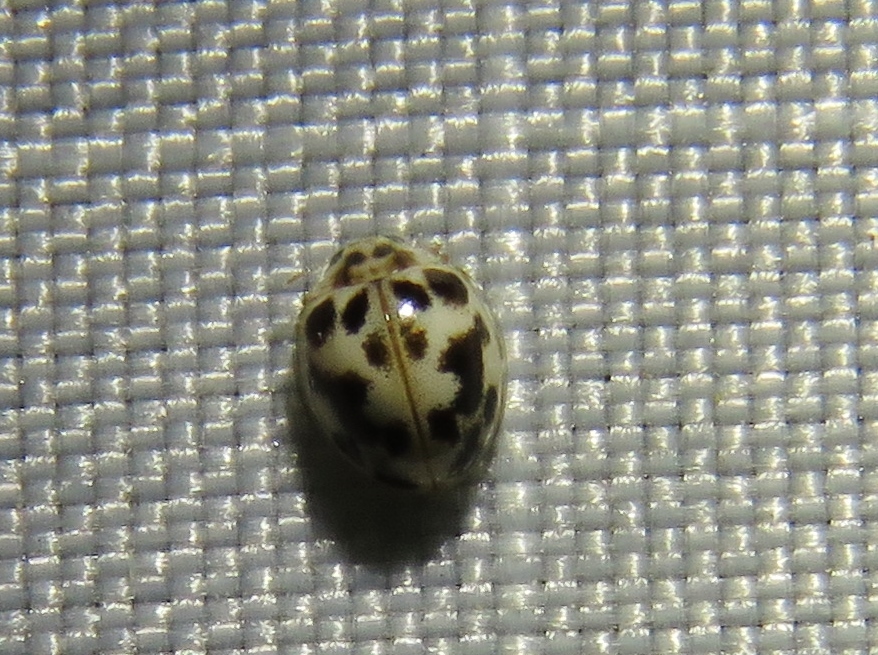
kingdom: Animalia
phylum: Arthropoda
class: Insecta
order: Coleoptera
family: Coccinellidae
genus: Psyllobora
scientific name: Psyllobora vigintimaculata
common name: Ladybird beetle
